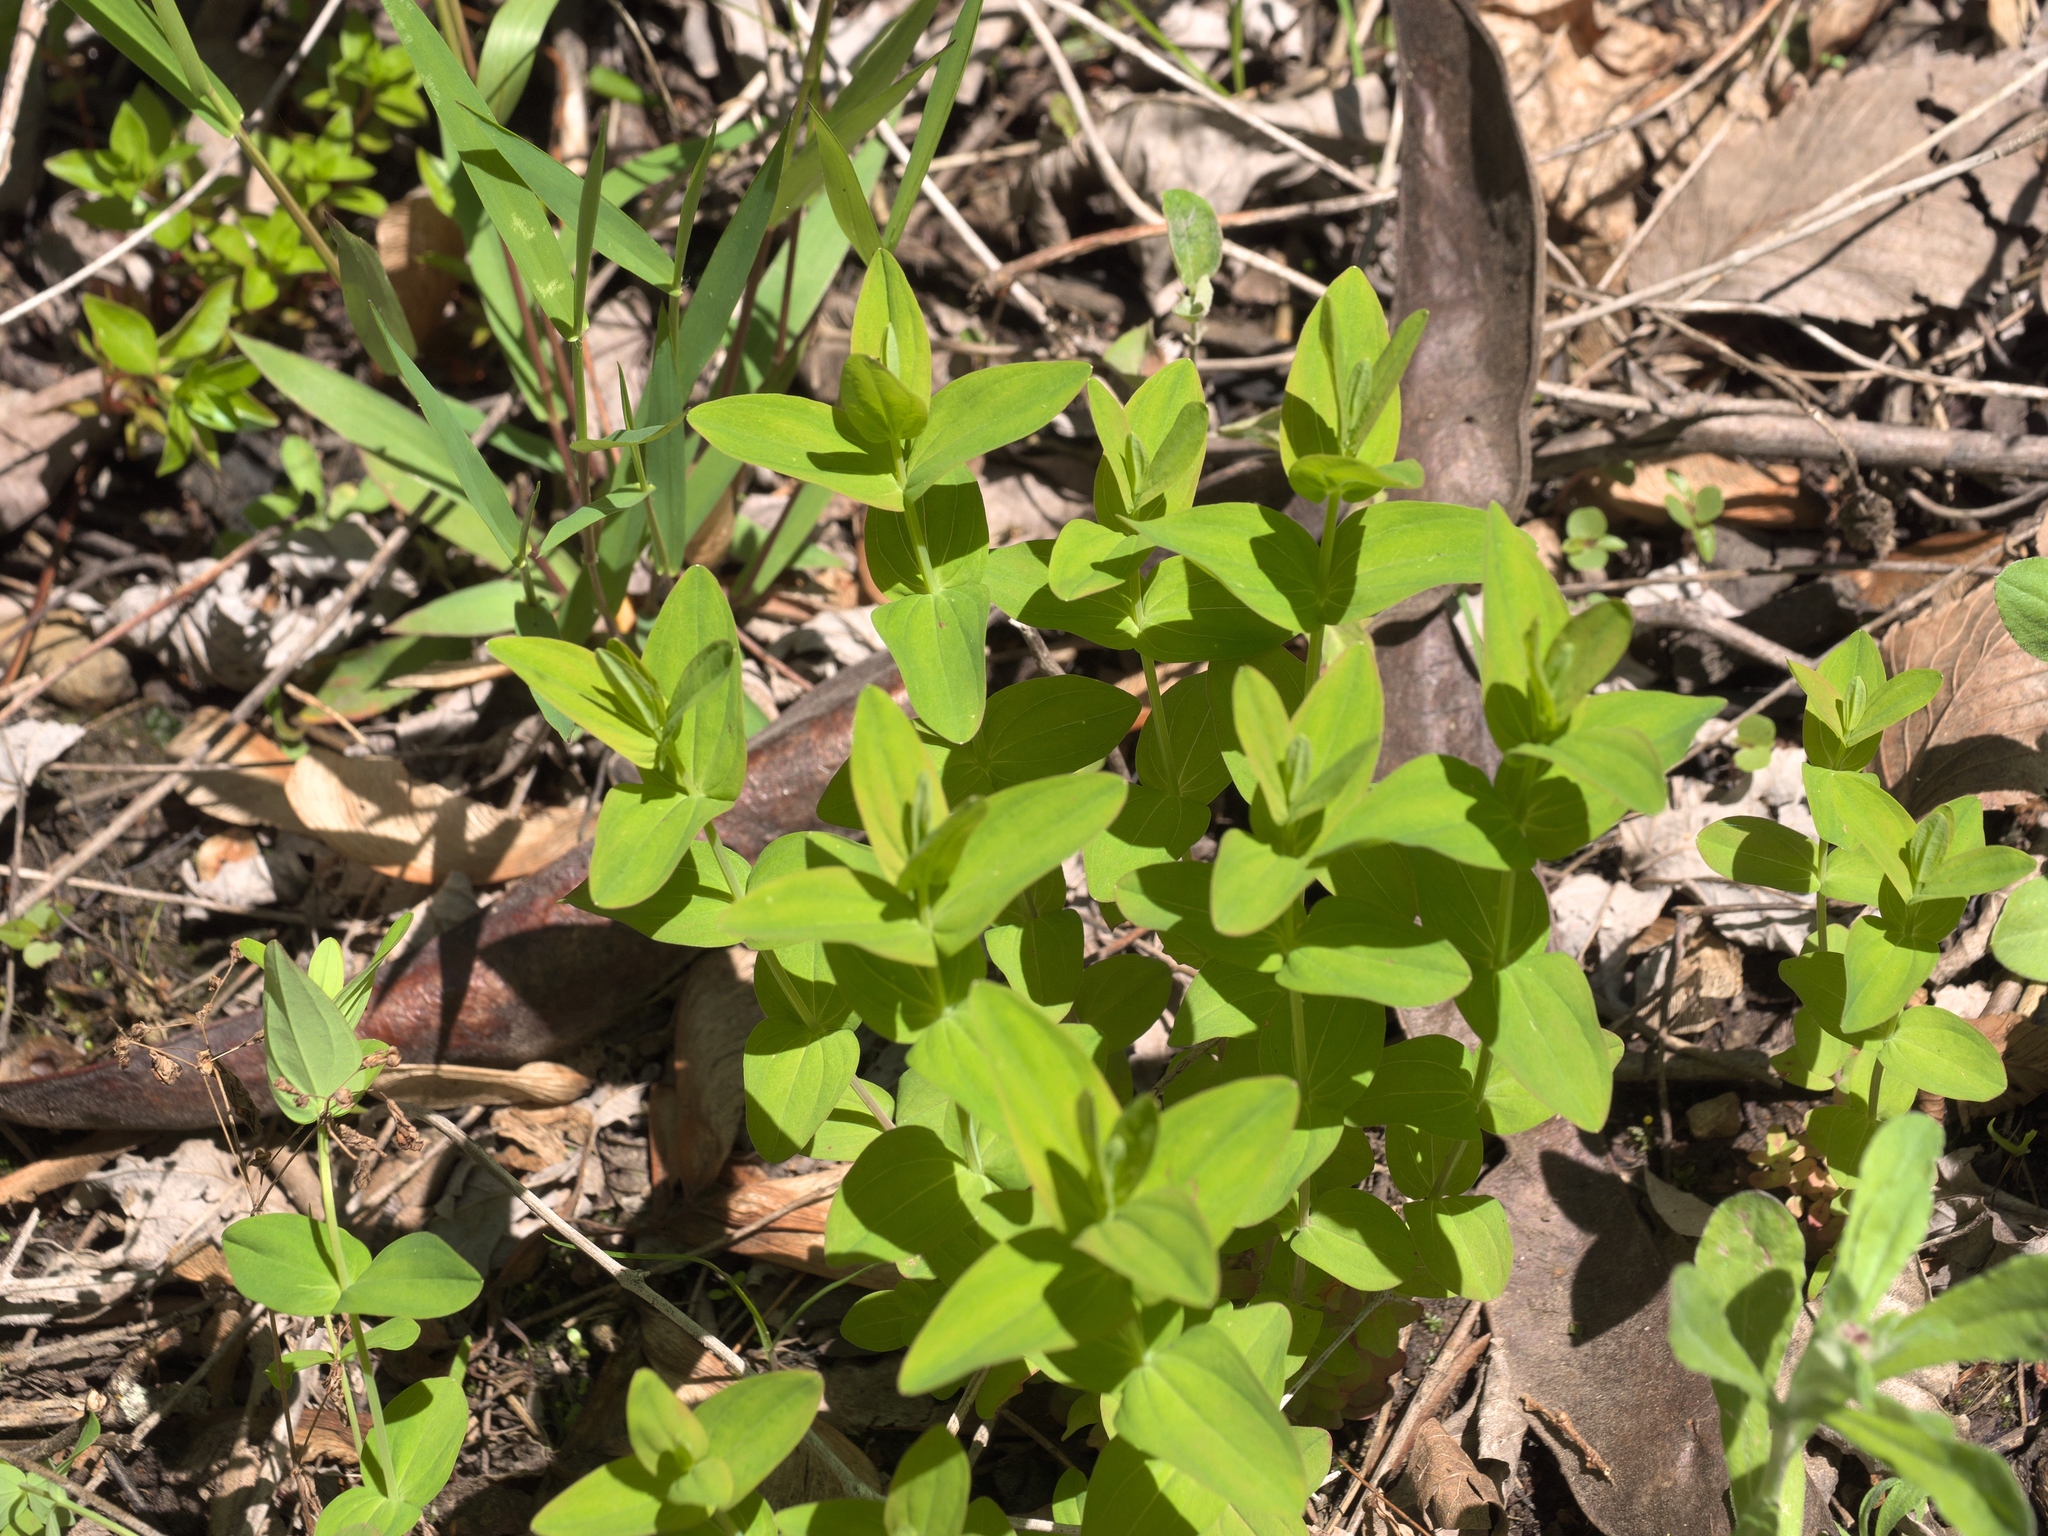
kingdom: Plantae
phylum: Tracheophyta
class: Magnoliopsida
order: Malpighiales
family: Hypericaceae
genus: Hypericum
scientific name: Hypericum punctatum
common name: Spotted st. john's-wort
